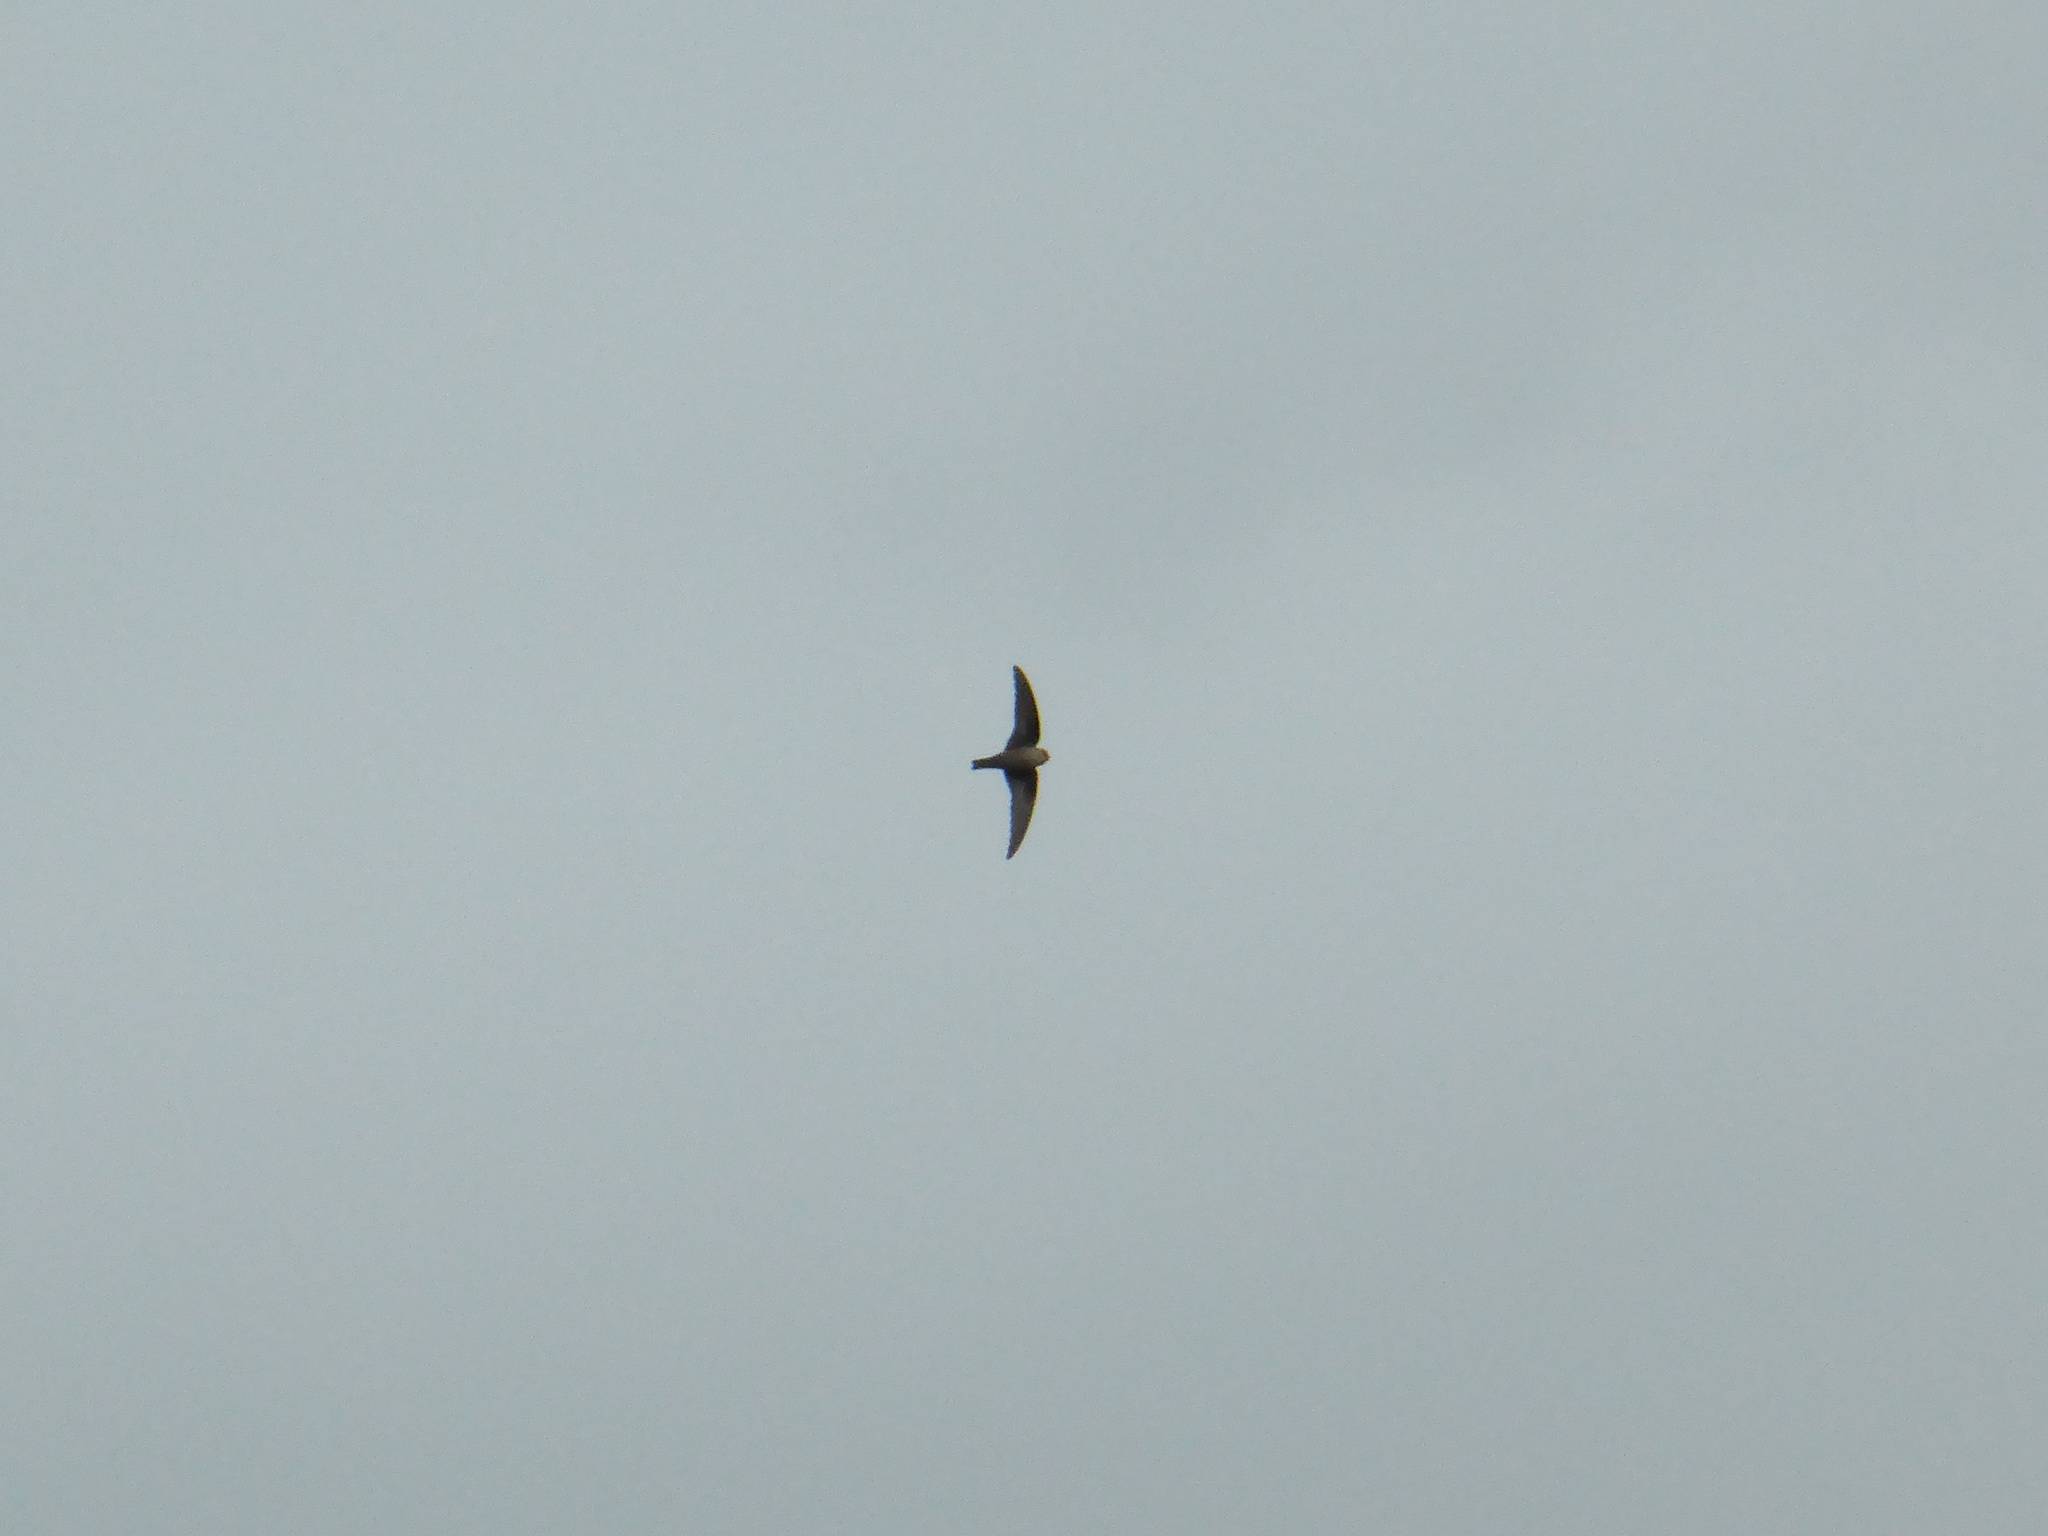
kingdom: Animalia
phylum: Chordata
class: Aves
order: Apodiformes
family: Apodidae
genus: Apus
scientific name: Apus apus
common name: Common swift
